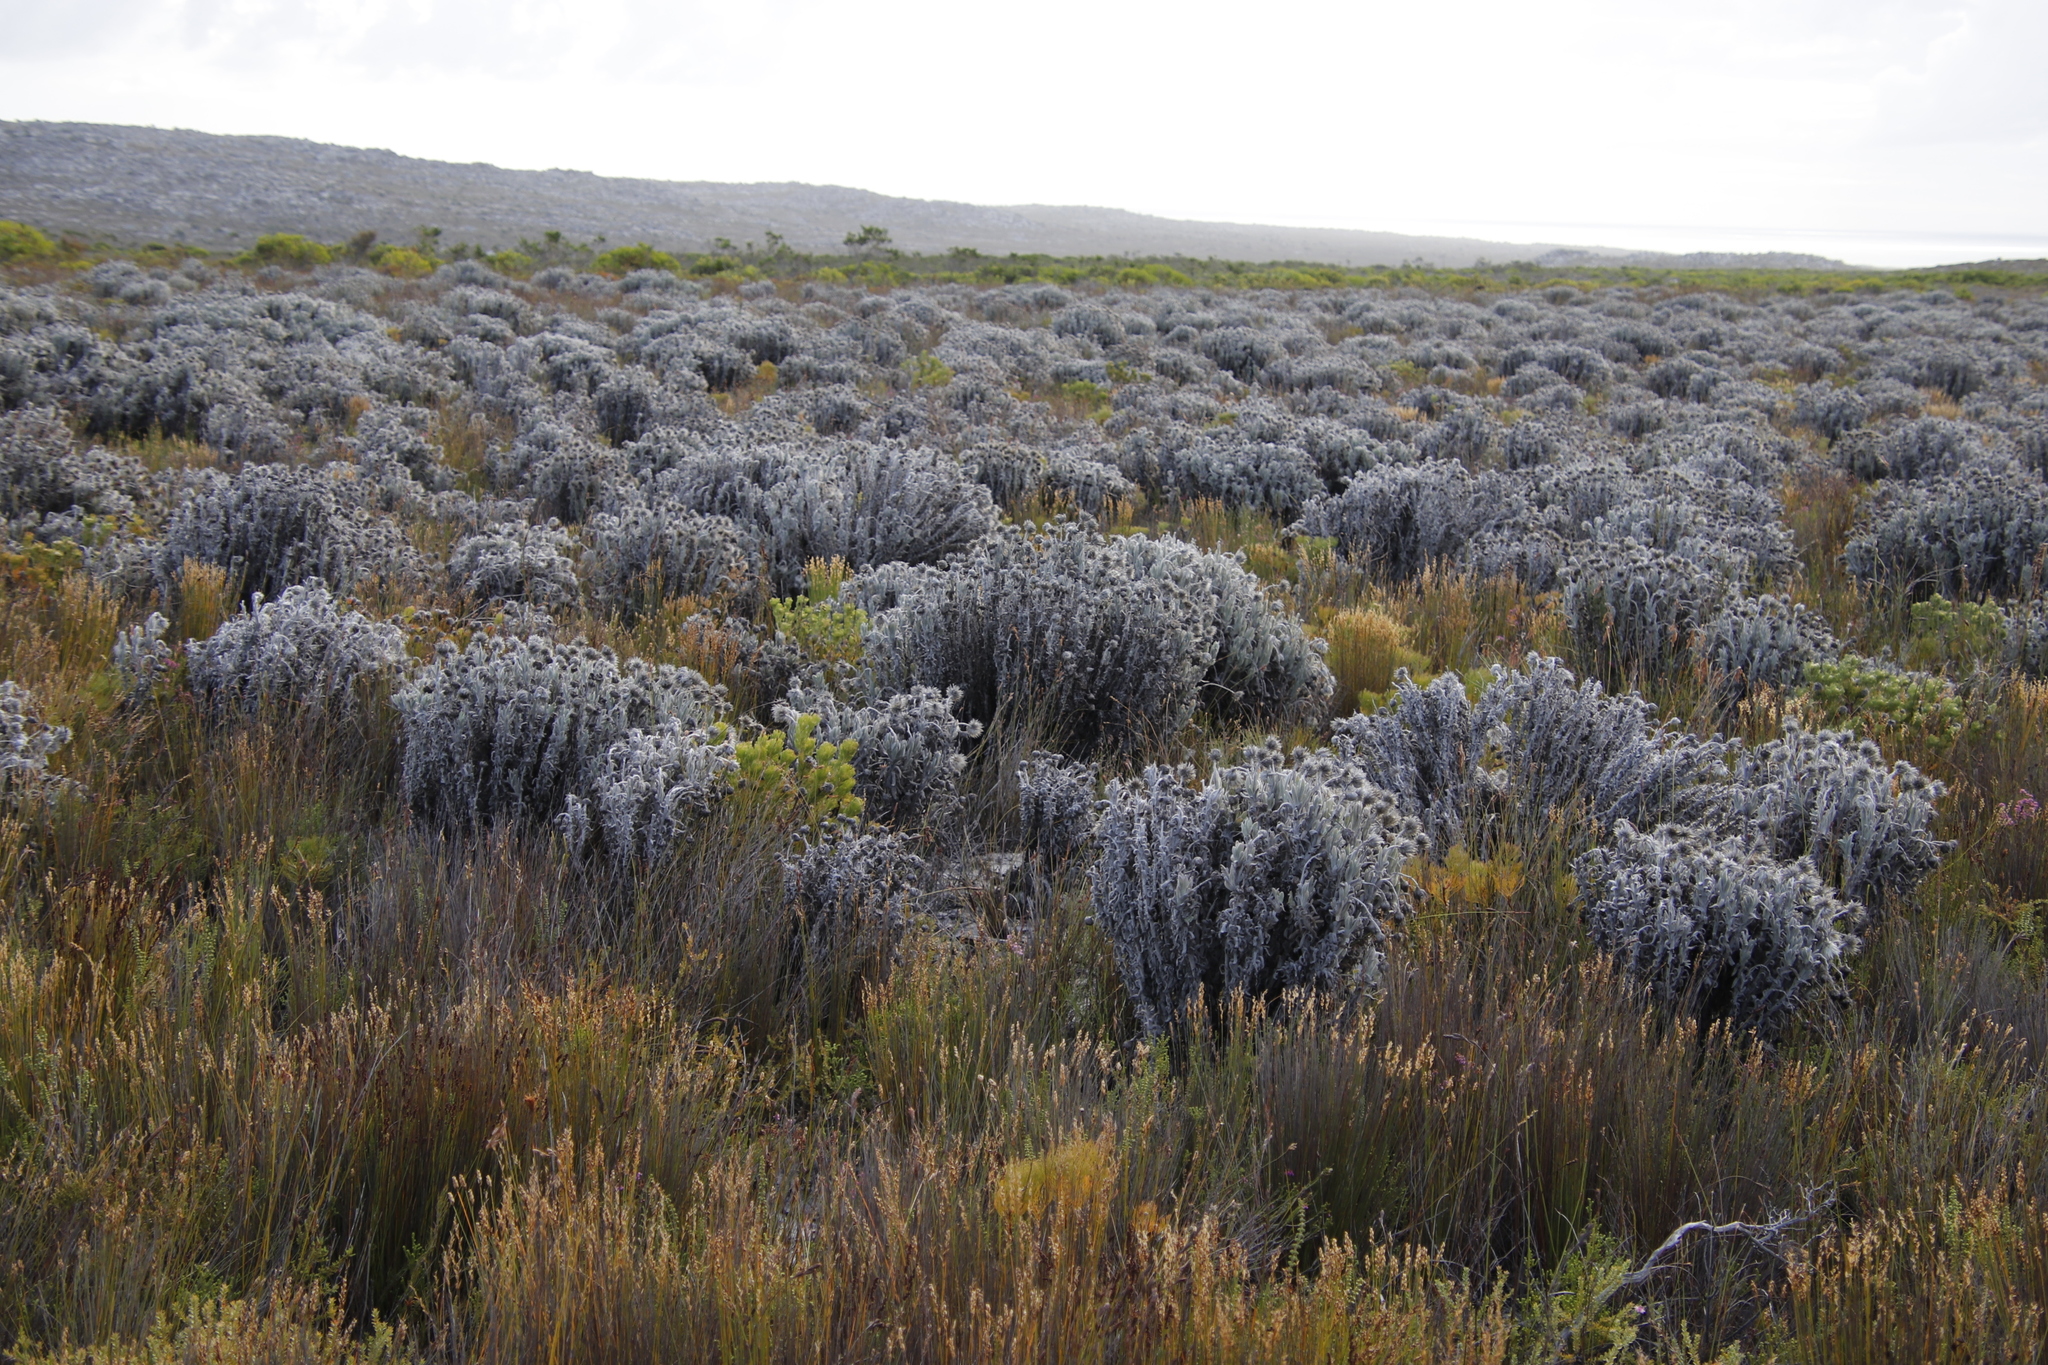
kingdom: Plantae
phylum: Tracheophyta
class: Magnoliopsida
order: Asterales
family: Asteraceae
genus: Syncarpha
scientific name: Syncarpha vestita
